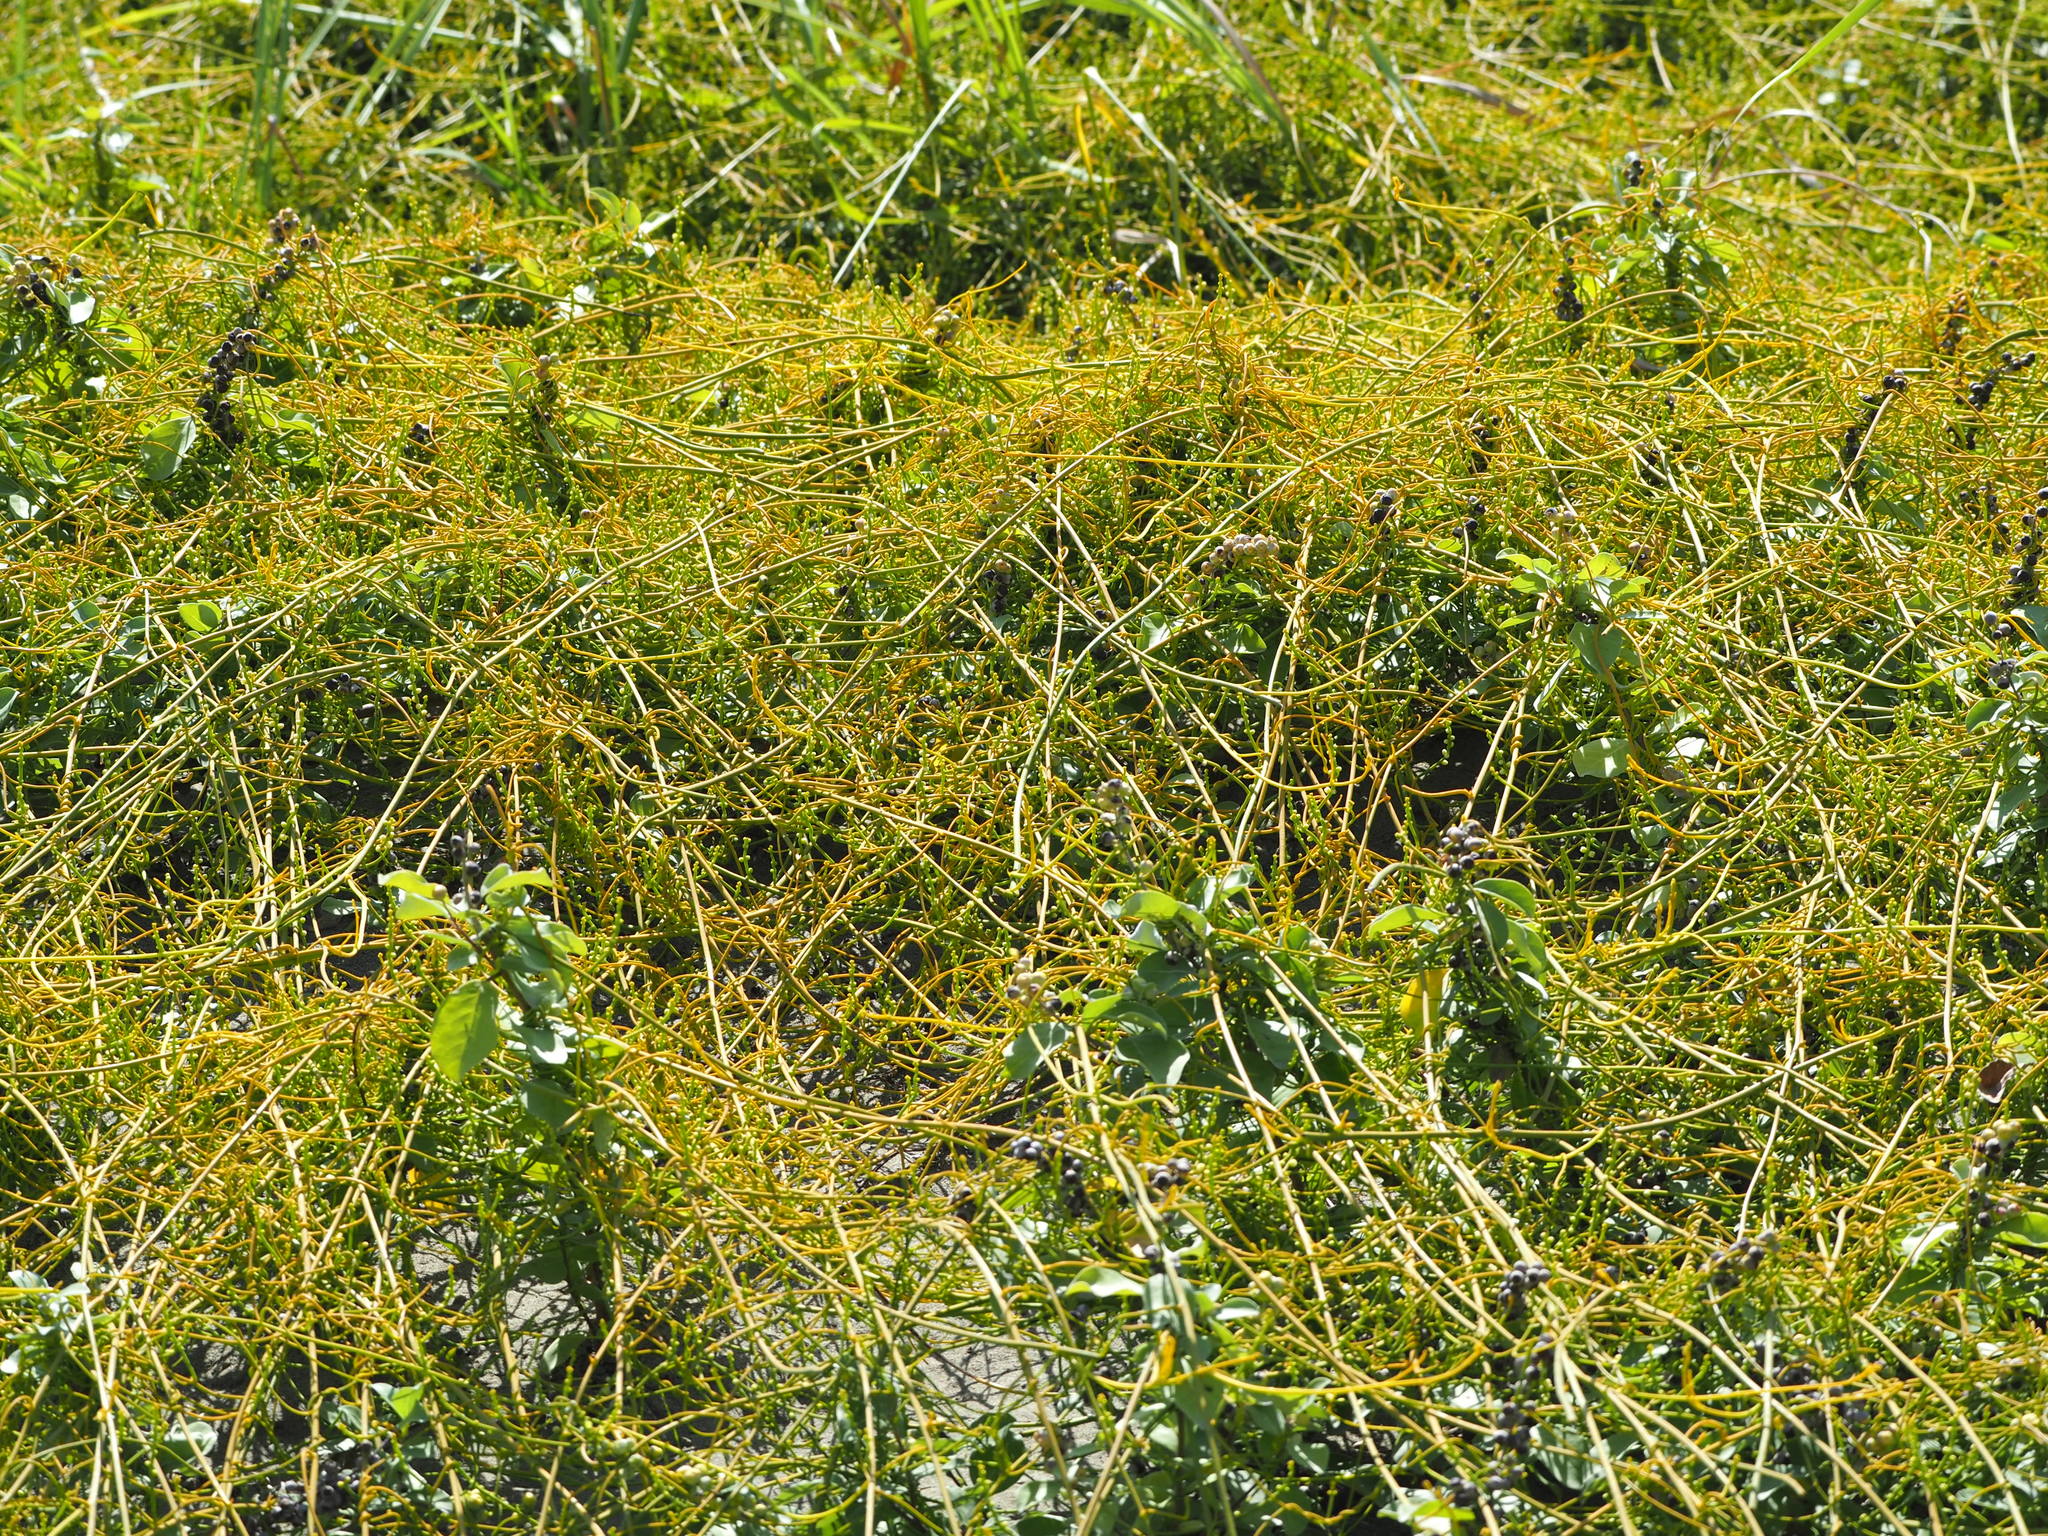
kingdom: Plantae
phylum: Tracheophyta
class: Magnoliopsida
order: Laurales
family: Lauraceae
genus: Cassytha
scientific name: Cassytha filiformis
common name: Dodder-laurel
